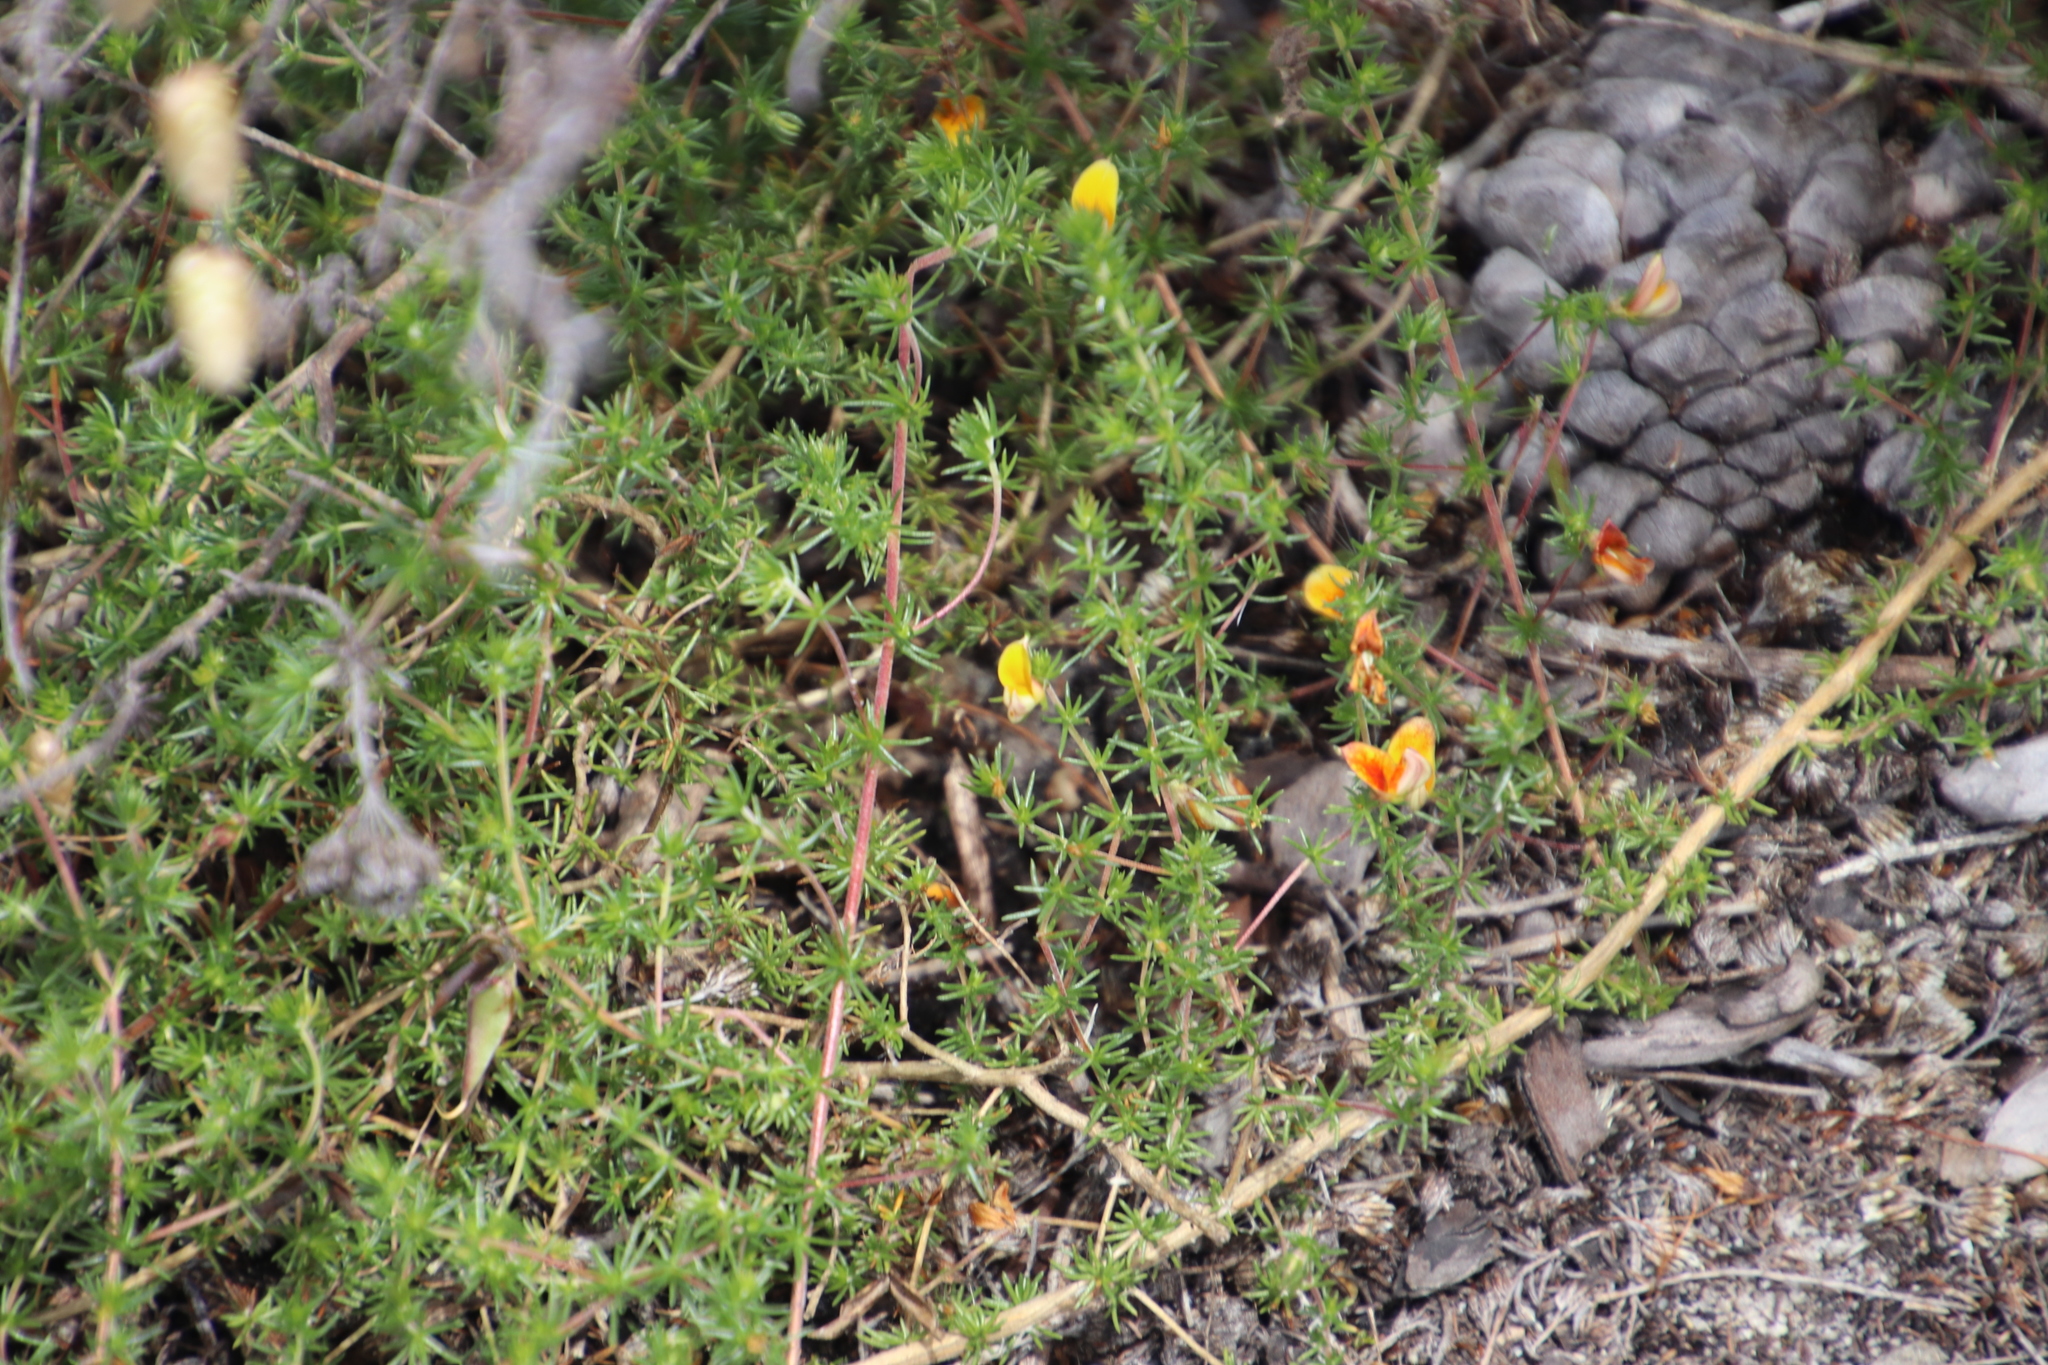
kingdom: Plantae
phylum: Tracheophyta
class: Magnoliopsida
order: Fabales
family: Fabaceae
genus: Aspalathus
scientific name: Aspalathus retroflexa
